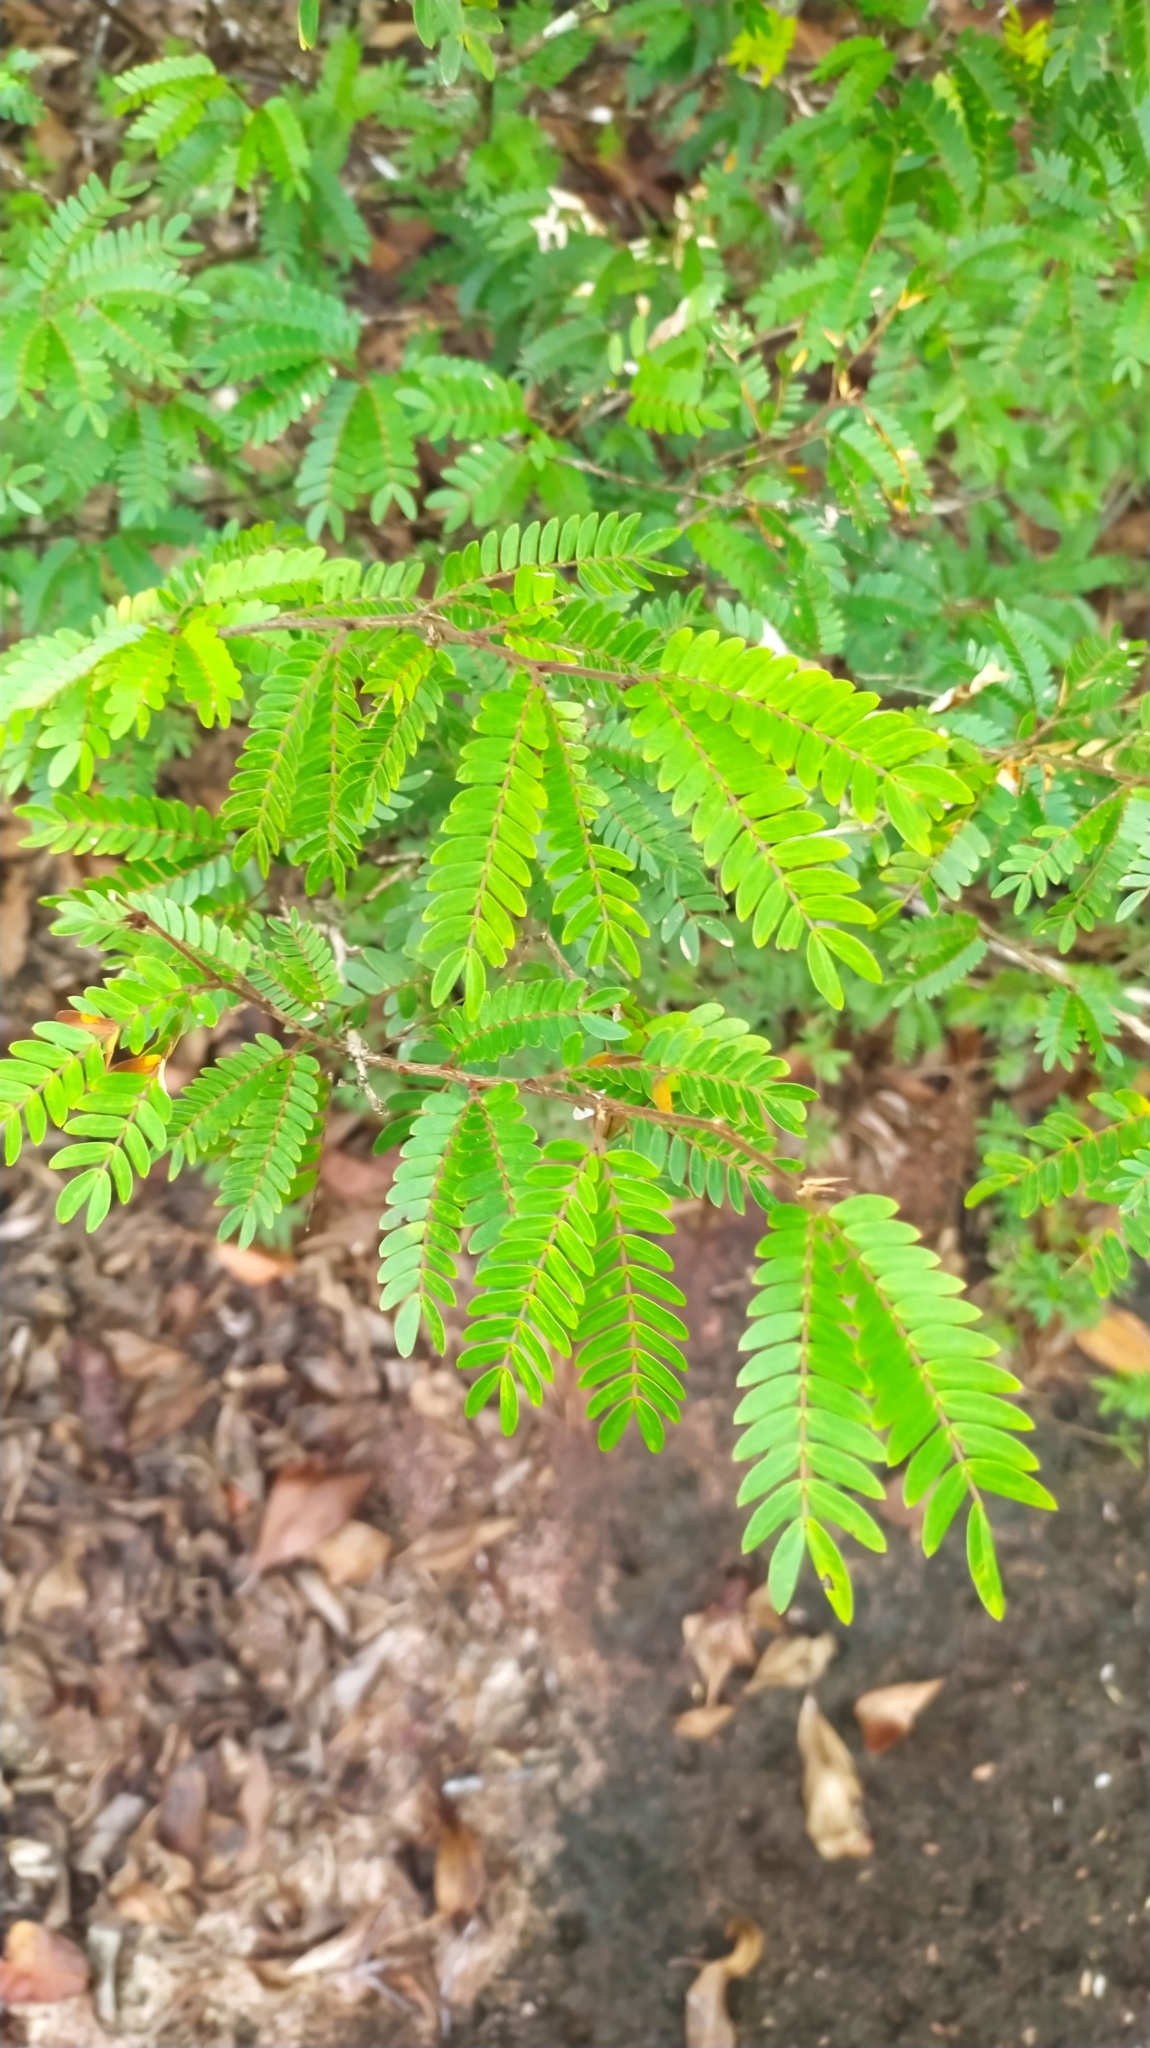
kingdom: Plantae
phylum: Tracheophyta
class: Magnoliopsida
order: Fabales
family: Fabaceae
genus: Calliandra
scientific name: Calliandra surinamensis
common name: Pink powder puff
